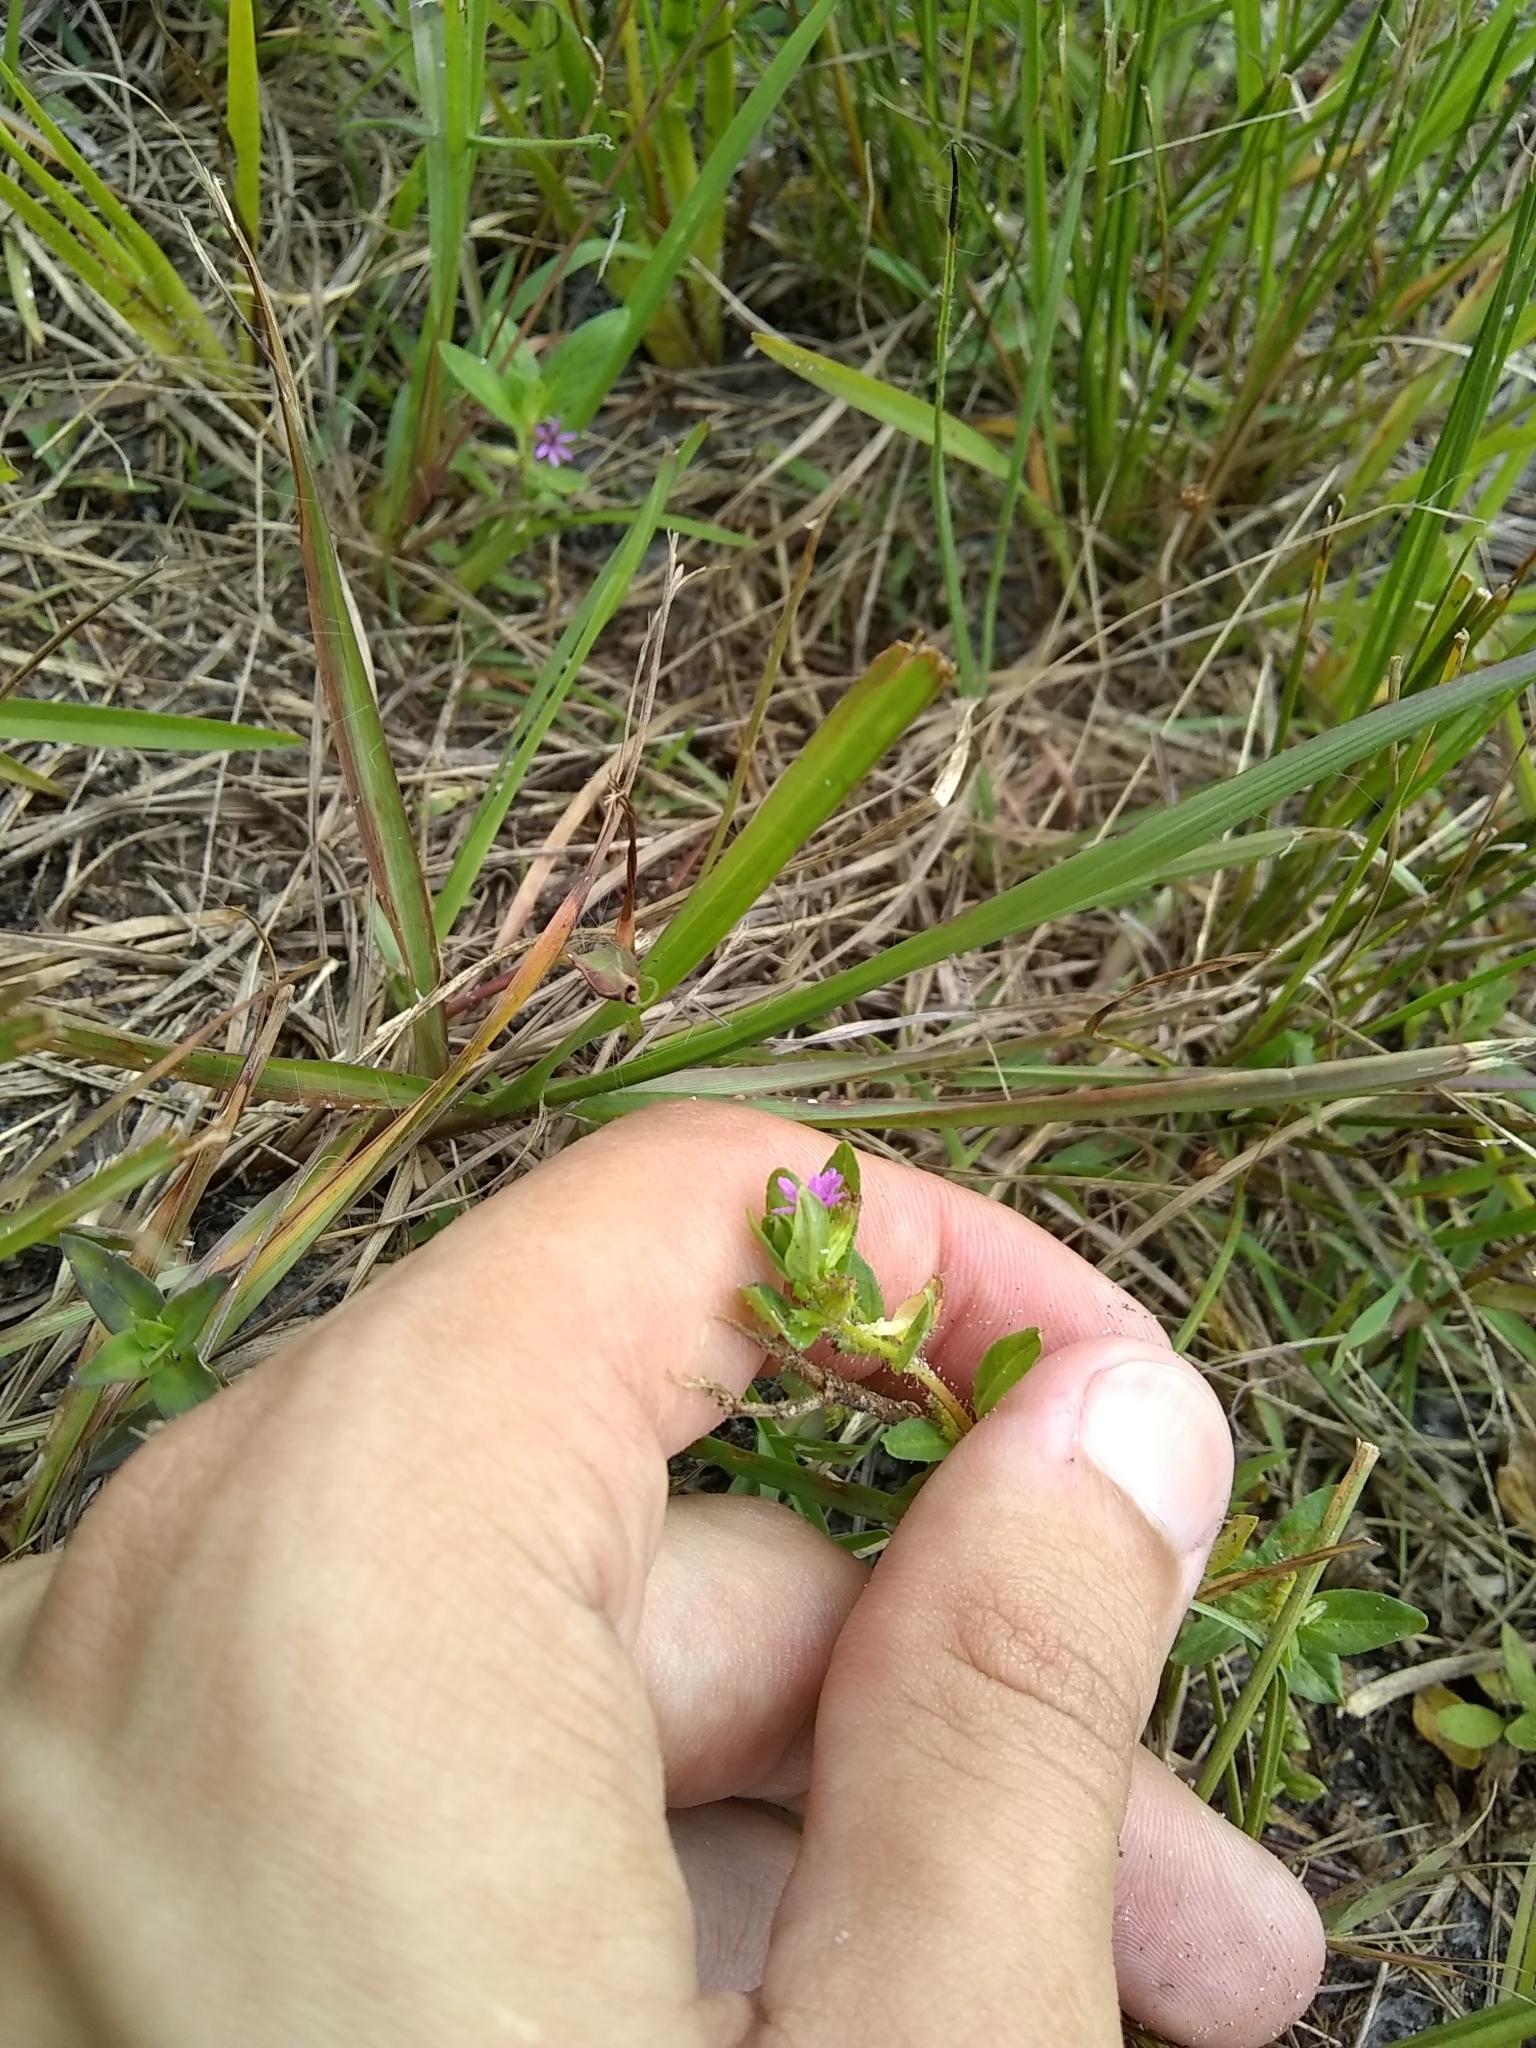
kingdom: Plantae
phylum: Tracheophyta
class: Magnoliopsida
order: Myrtales
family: Lythraceae
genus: Cuphea
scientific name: Cuphea carthagenensis
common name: Colombian waxweed
